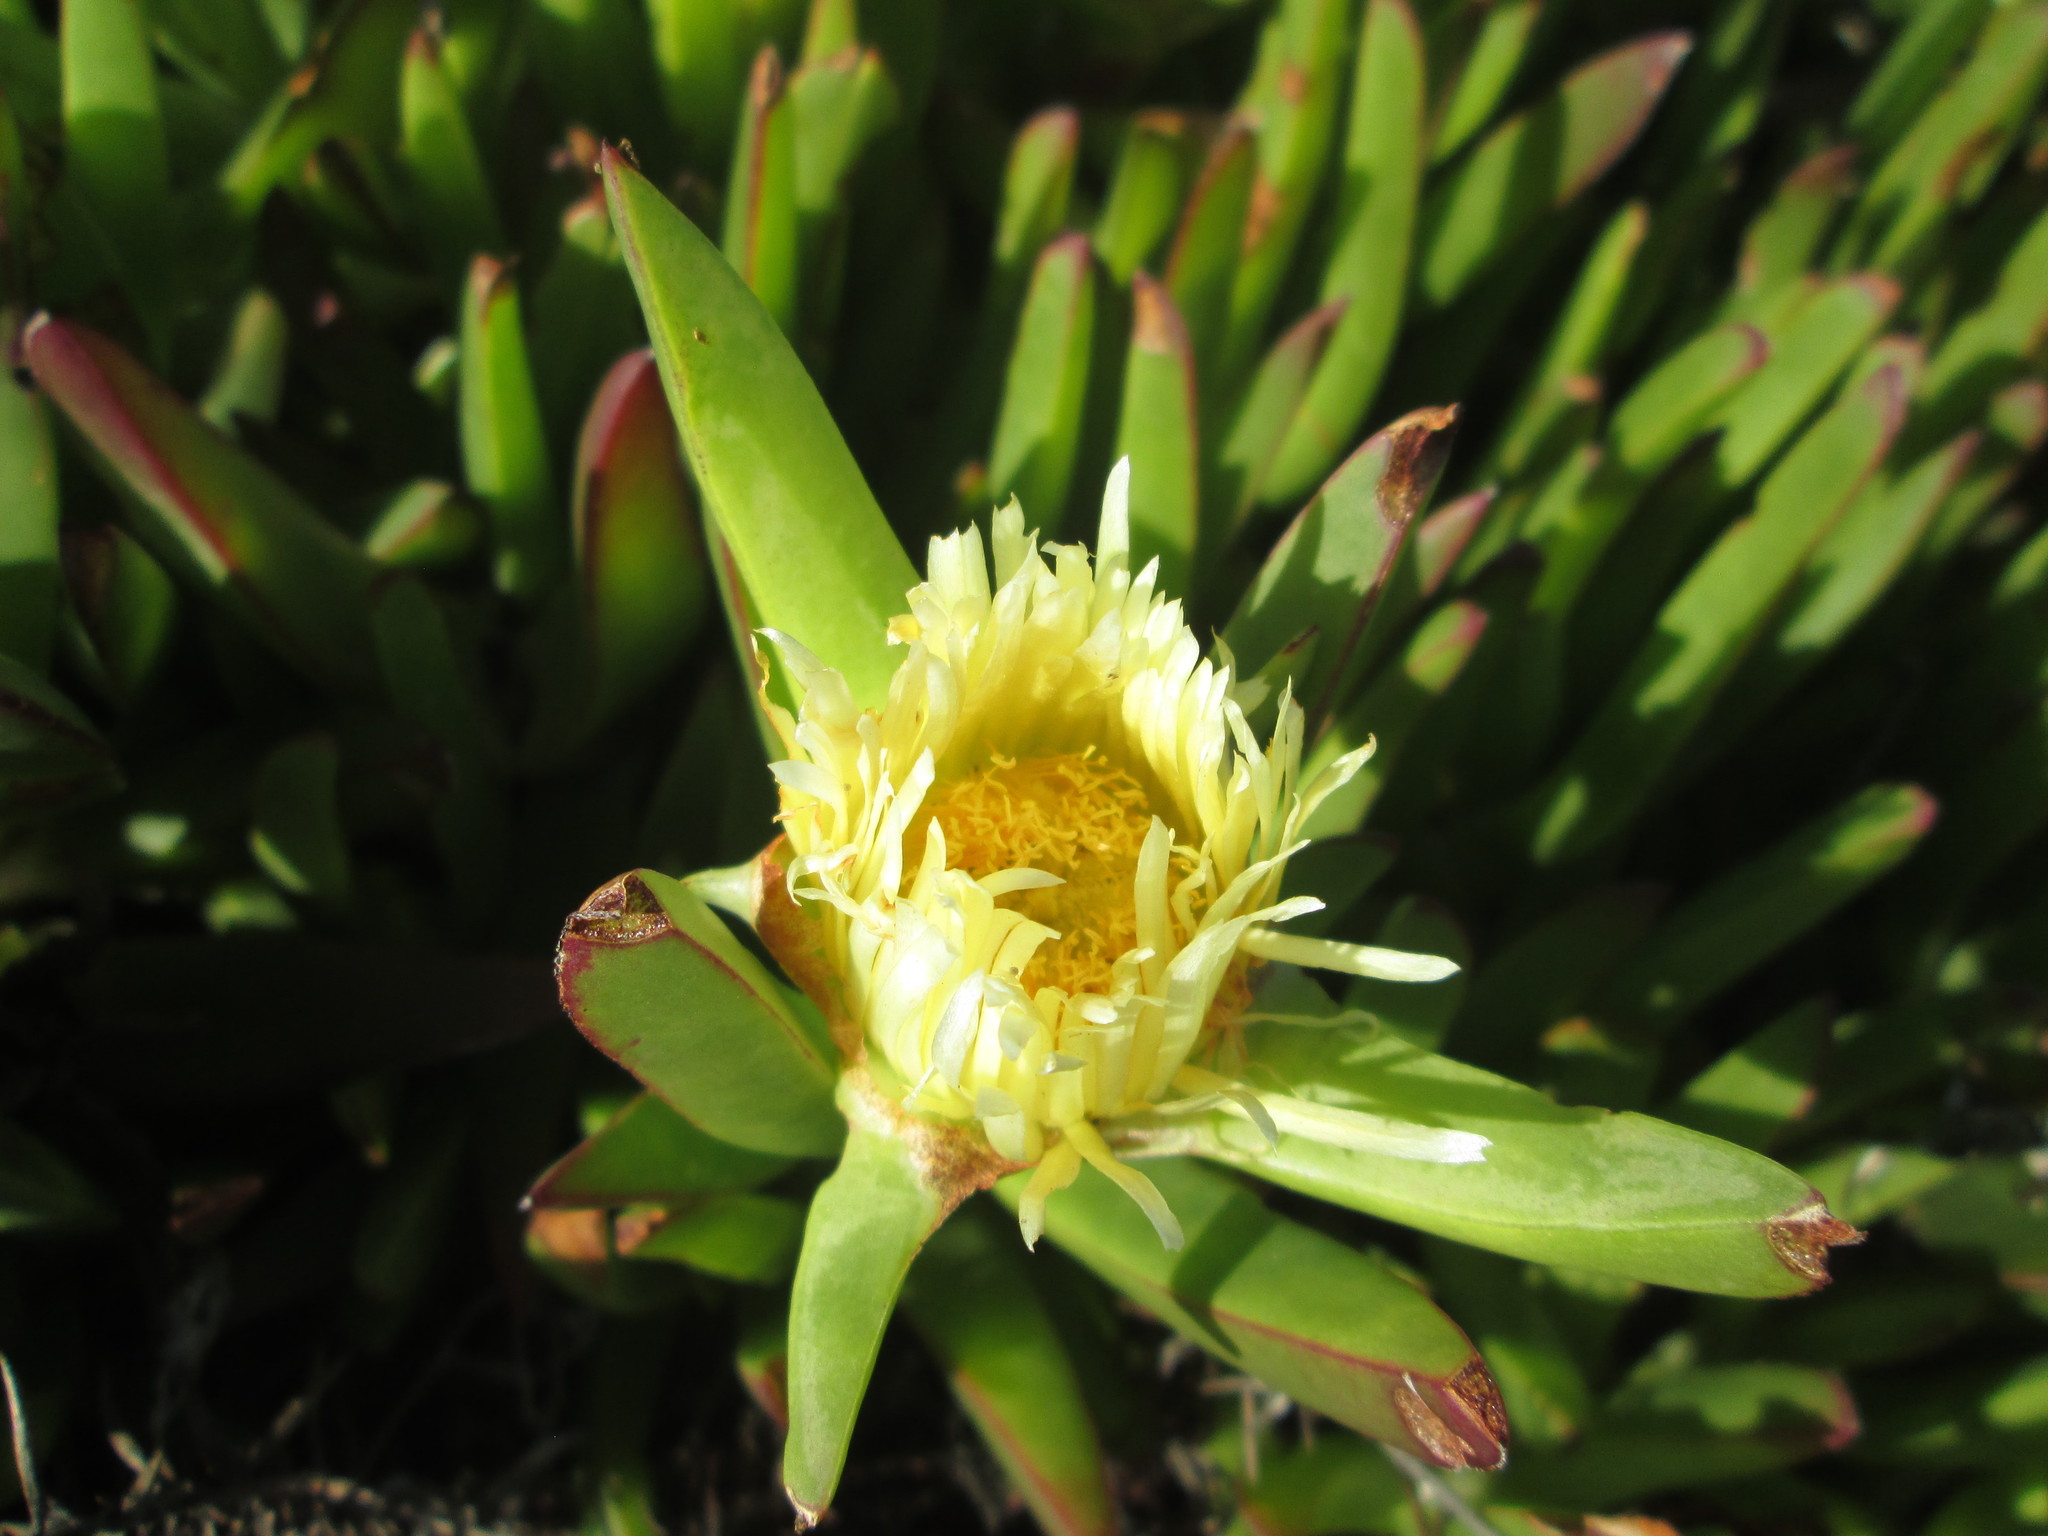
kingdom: Plantae
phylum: Tracheophyta
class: Magnoliopsida
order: Caryophyllales
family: Aizoaceae
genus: Carpobrotus
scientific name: Carpobrotus edulis
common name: Hottentot-fig
